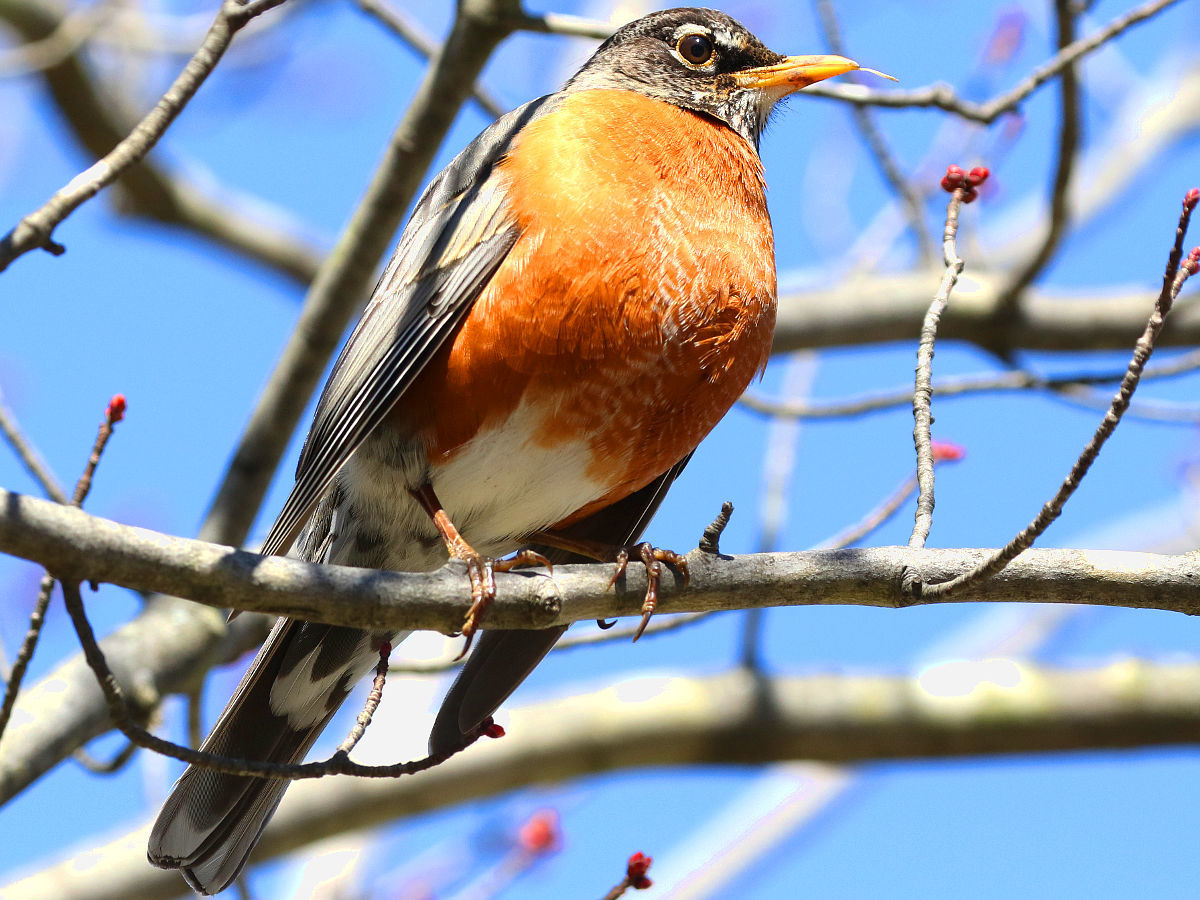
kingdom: Animalia
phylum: Chordata
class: Aves
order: Passeriformes
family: Turdidae
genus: Turdus
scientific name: Turdus migratorius
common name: American robin
